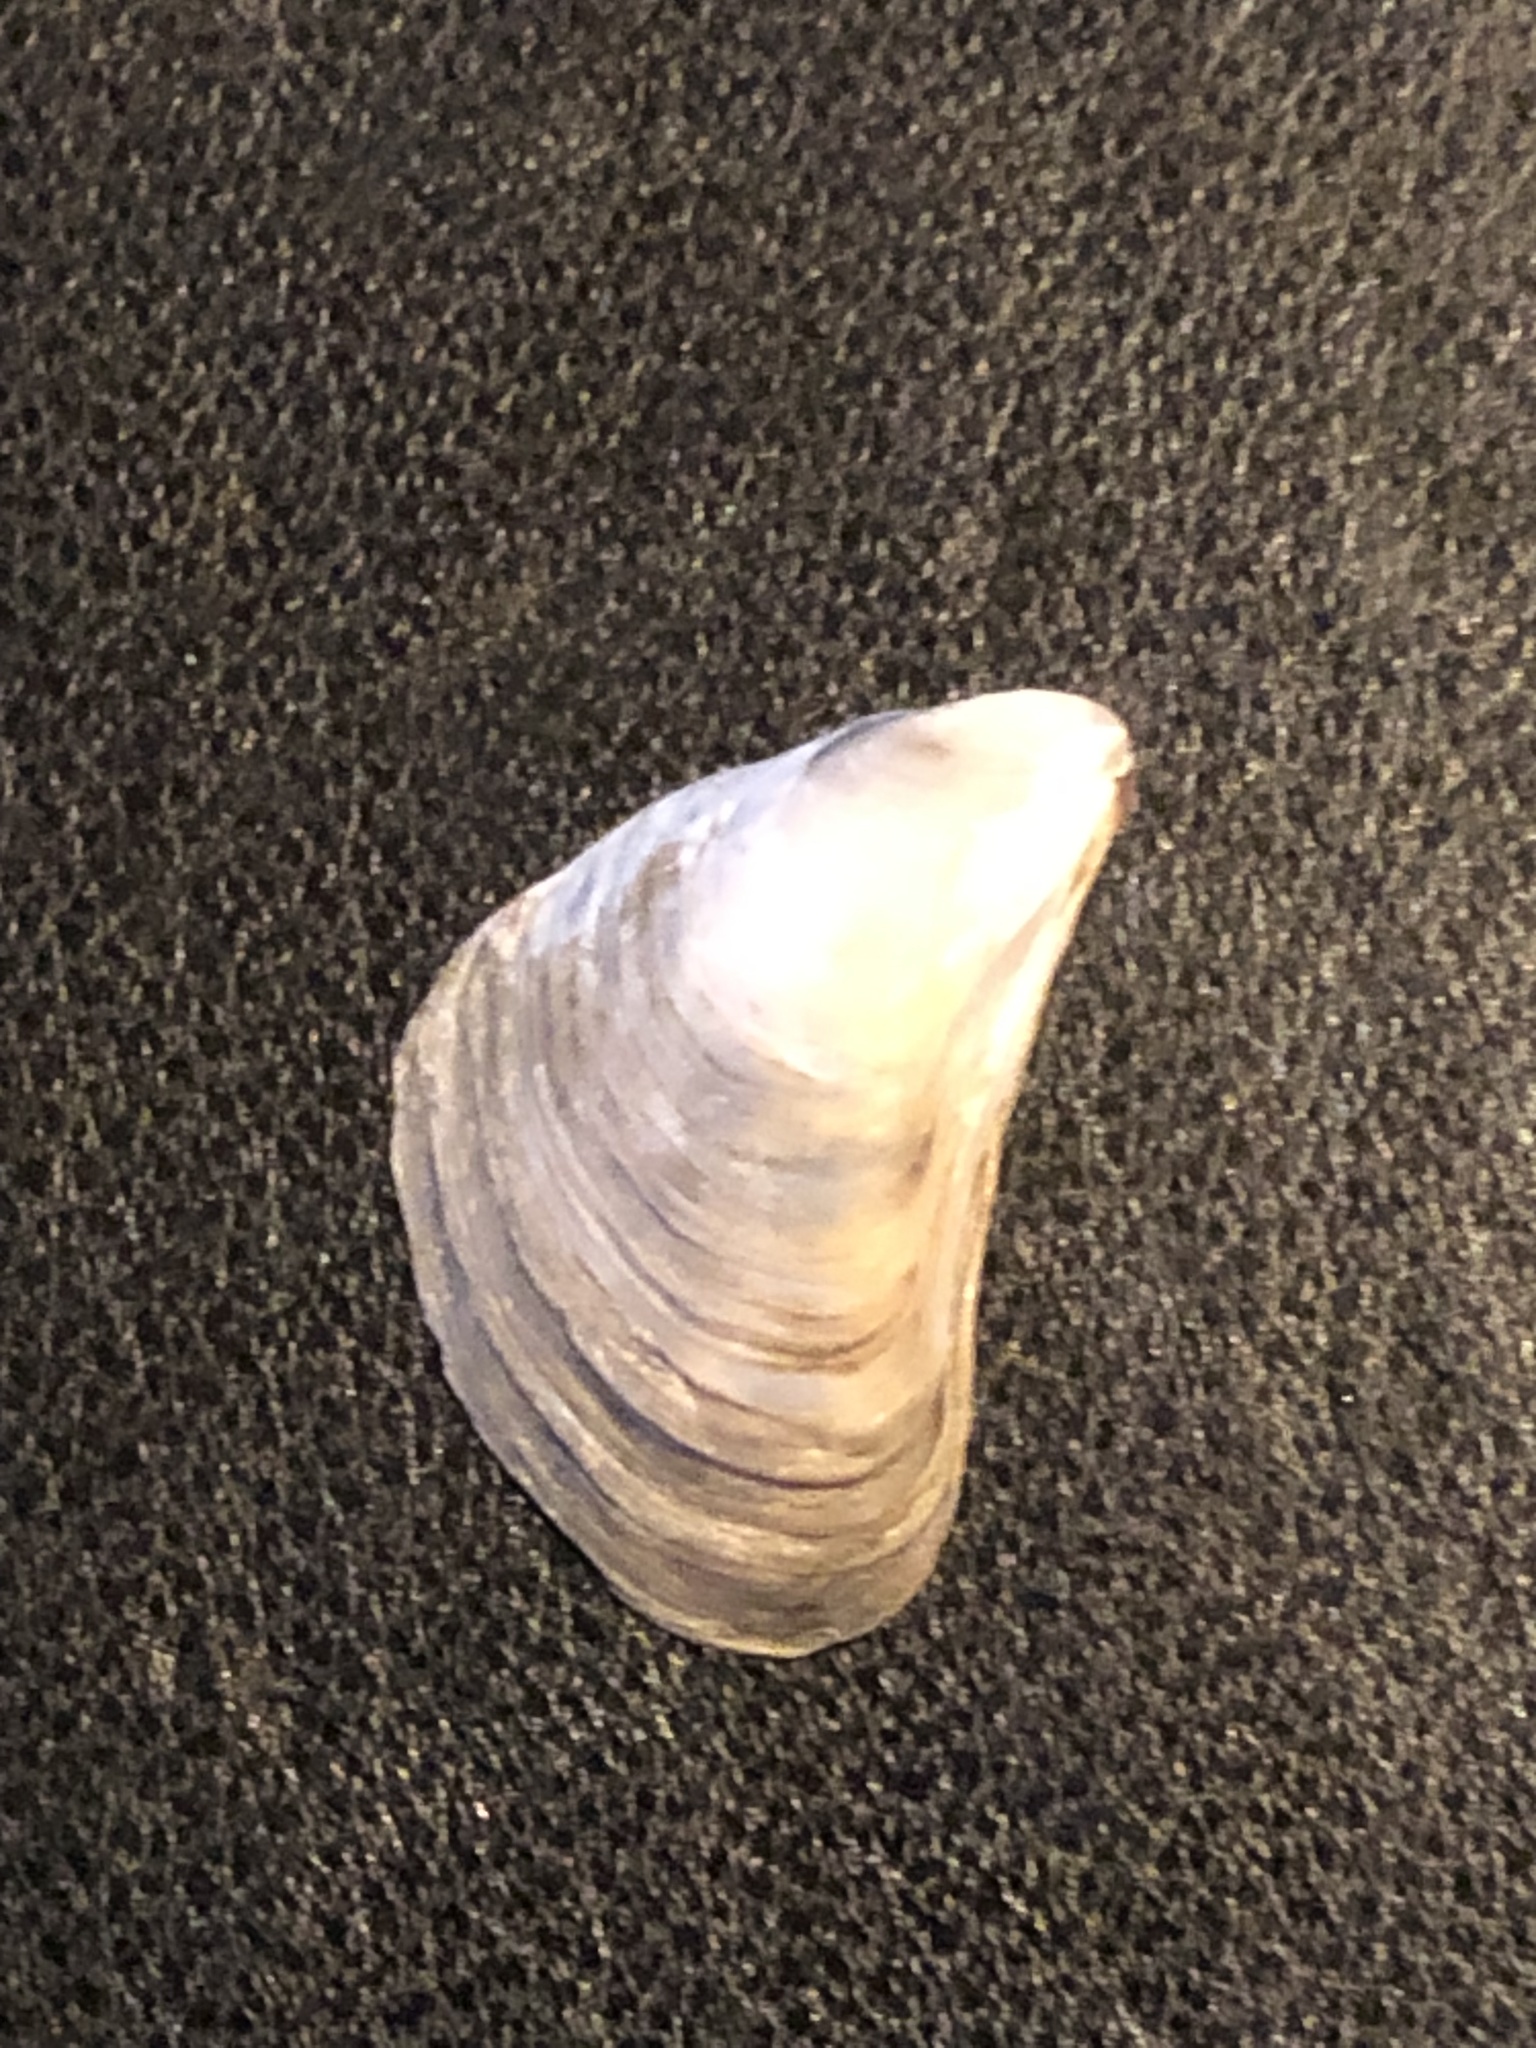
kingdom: Animalia
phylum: Mollusca
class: Bivalvia
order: Myida
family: Dreissenidae
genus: Dreissena
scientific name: Dreissena bugensis
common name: Quagga mussel
